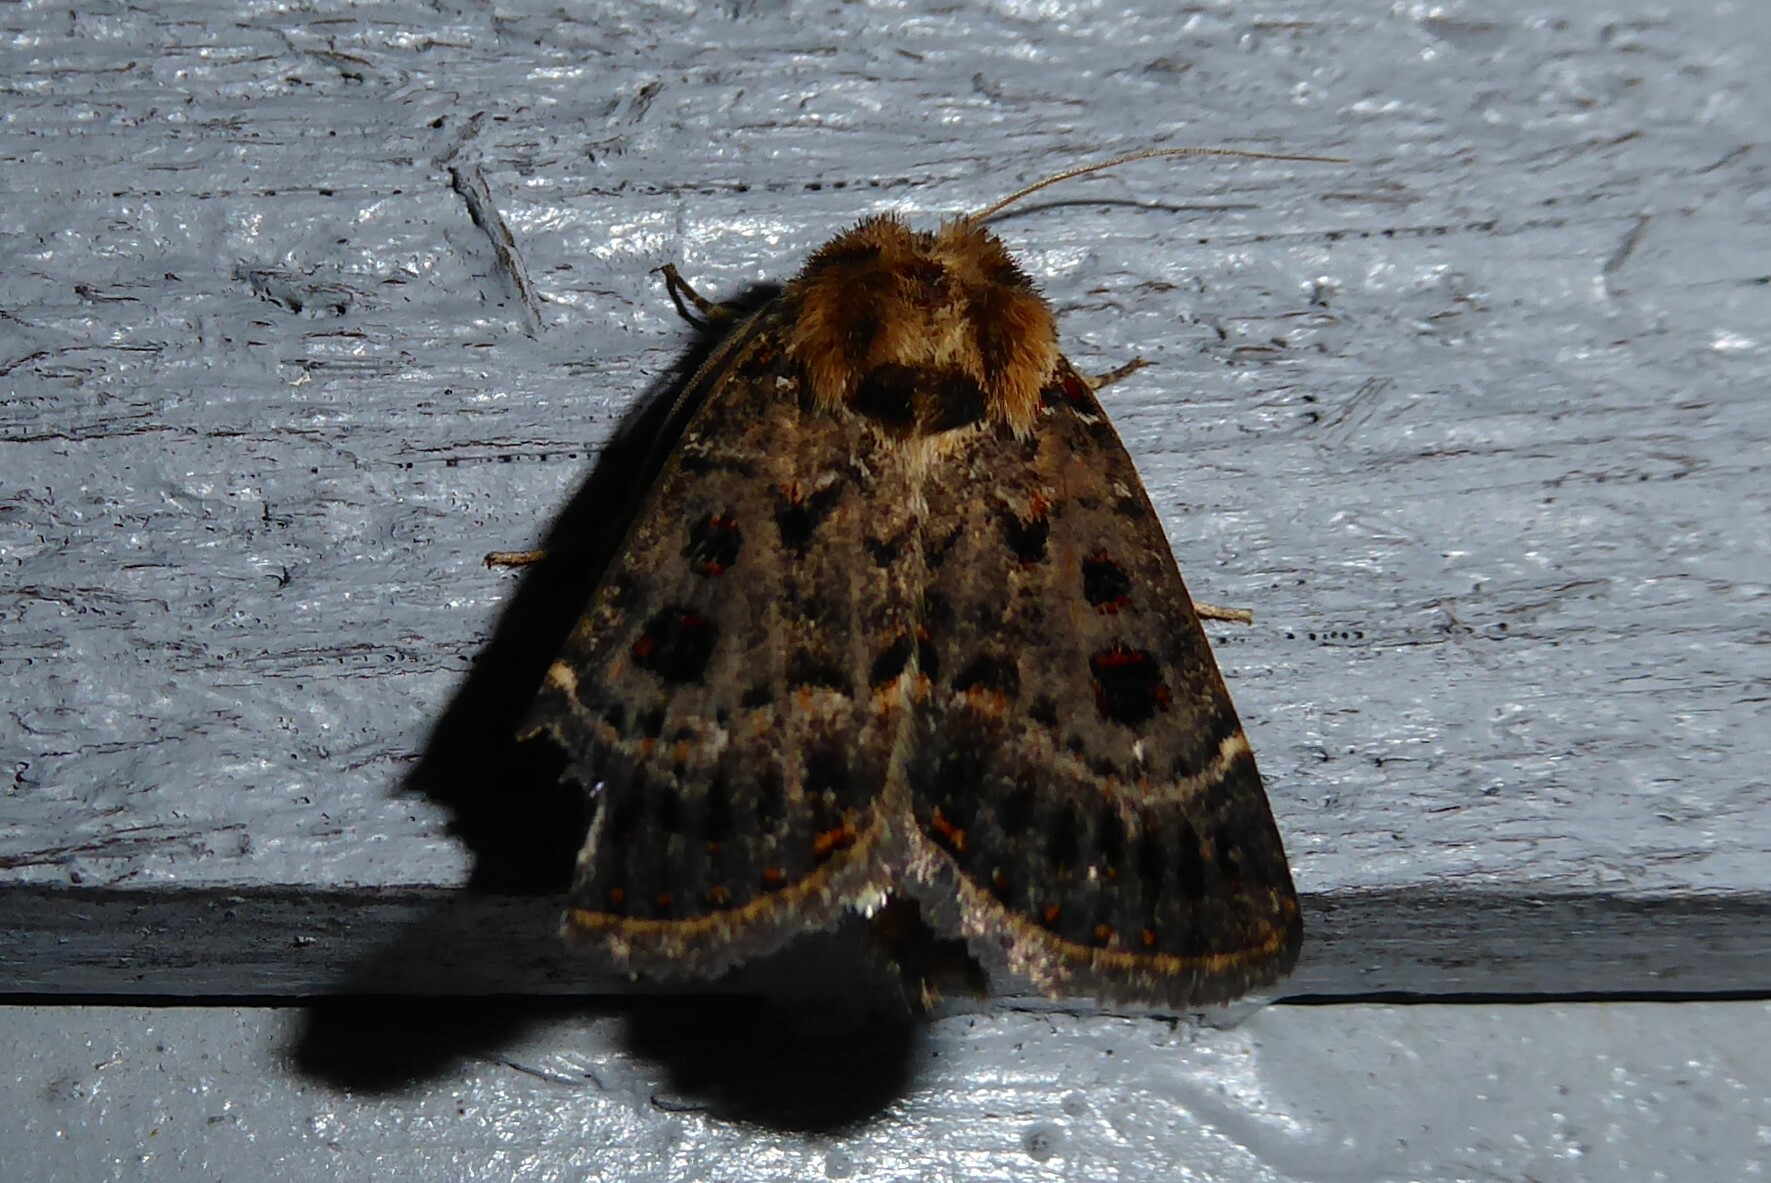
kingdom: Animalia
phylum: Arthropoda
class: Insecta
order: Lepidoptera
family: Noctuidae
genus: Proteuxoa
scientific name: Proteuxoa sanguinipuncta
